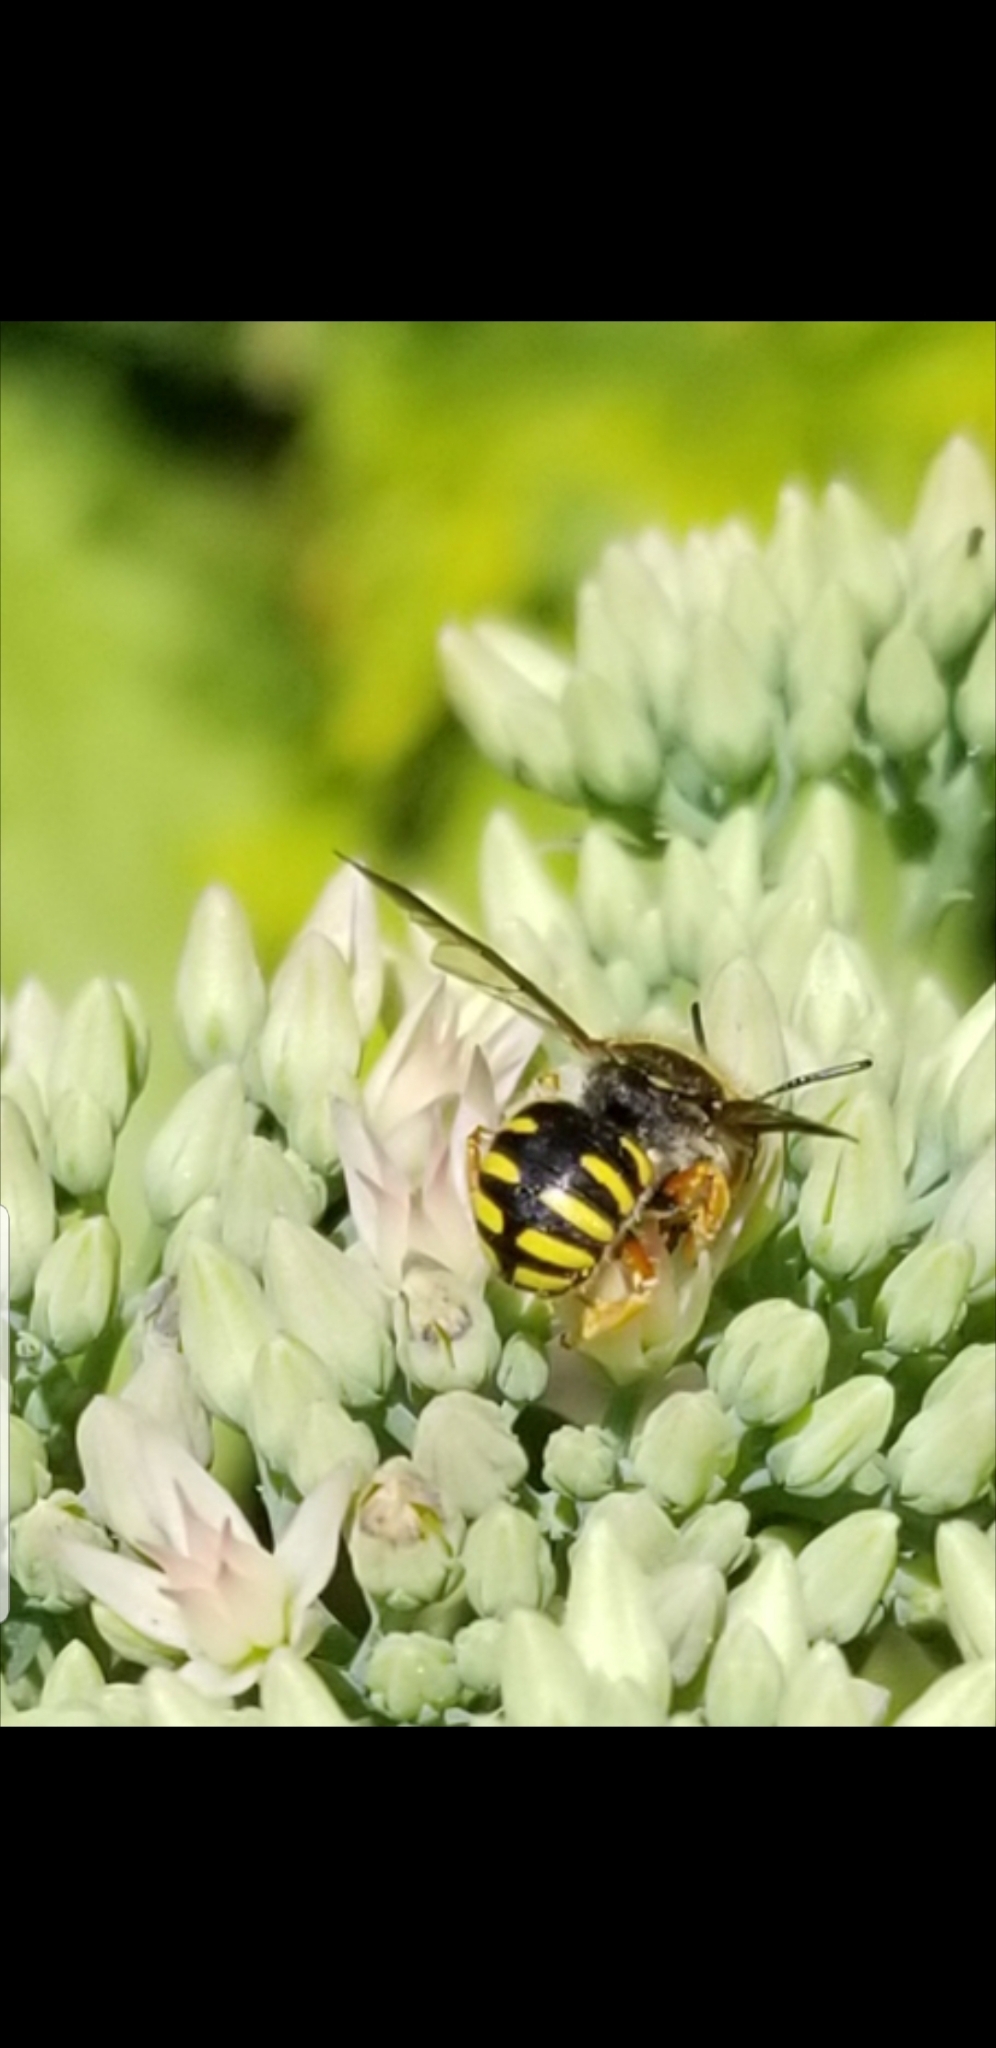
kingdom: Animalia
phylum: Arthropoda
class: Insecta
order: Hymenoptera
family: Megachilidae
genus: Anthidium
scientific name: Anthidium oblongatum
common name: Oblong wool carder bee
